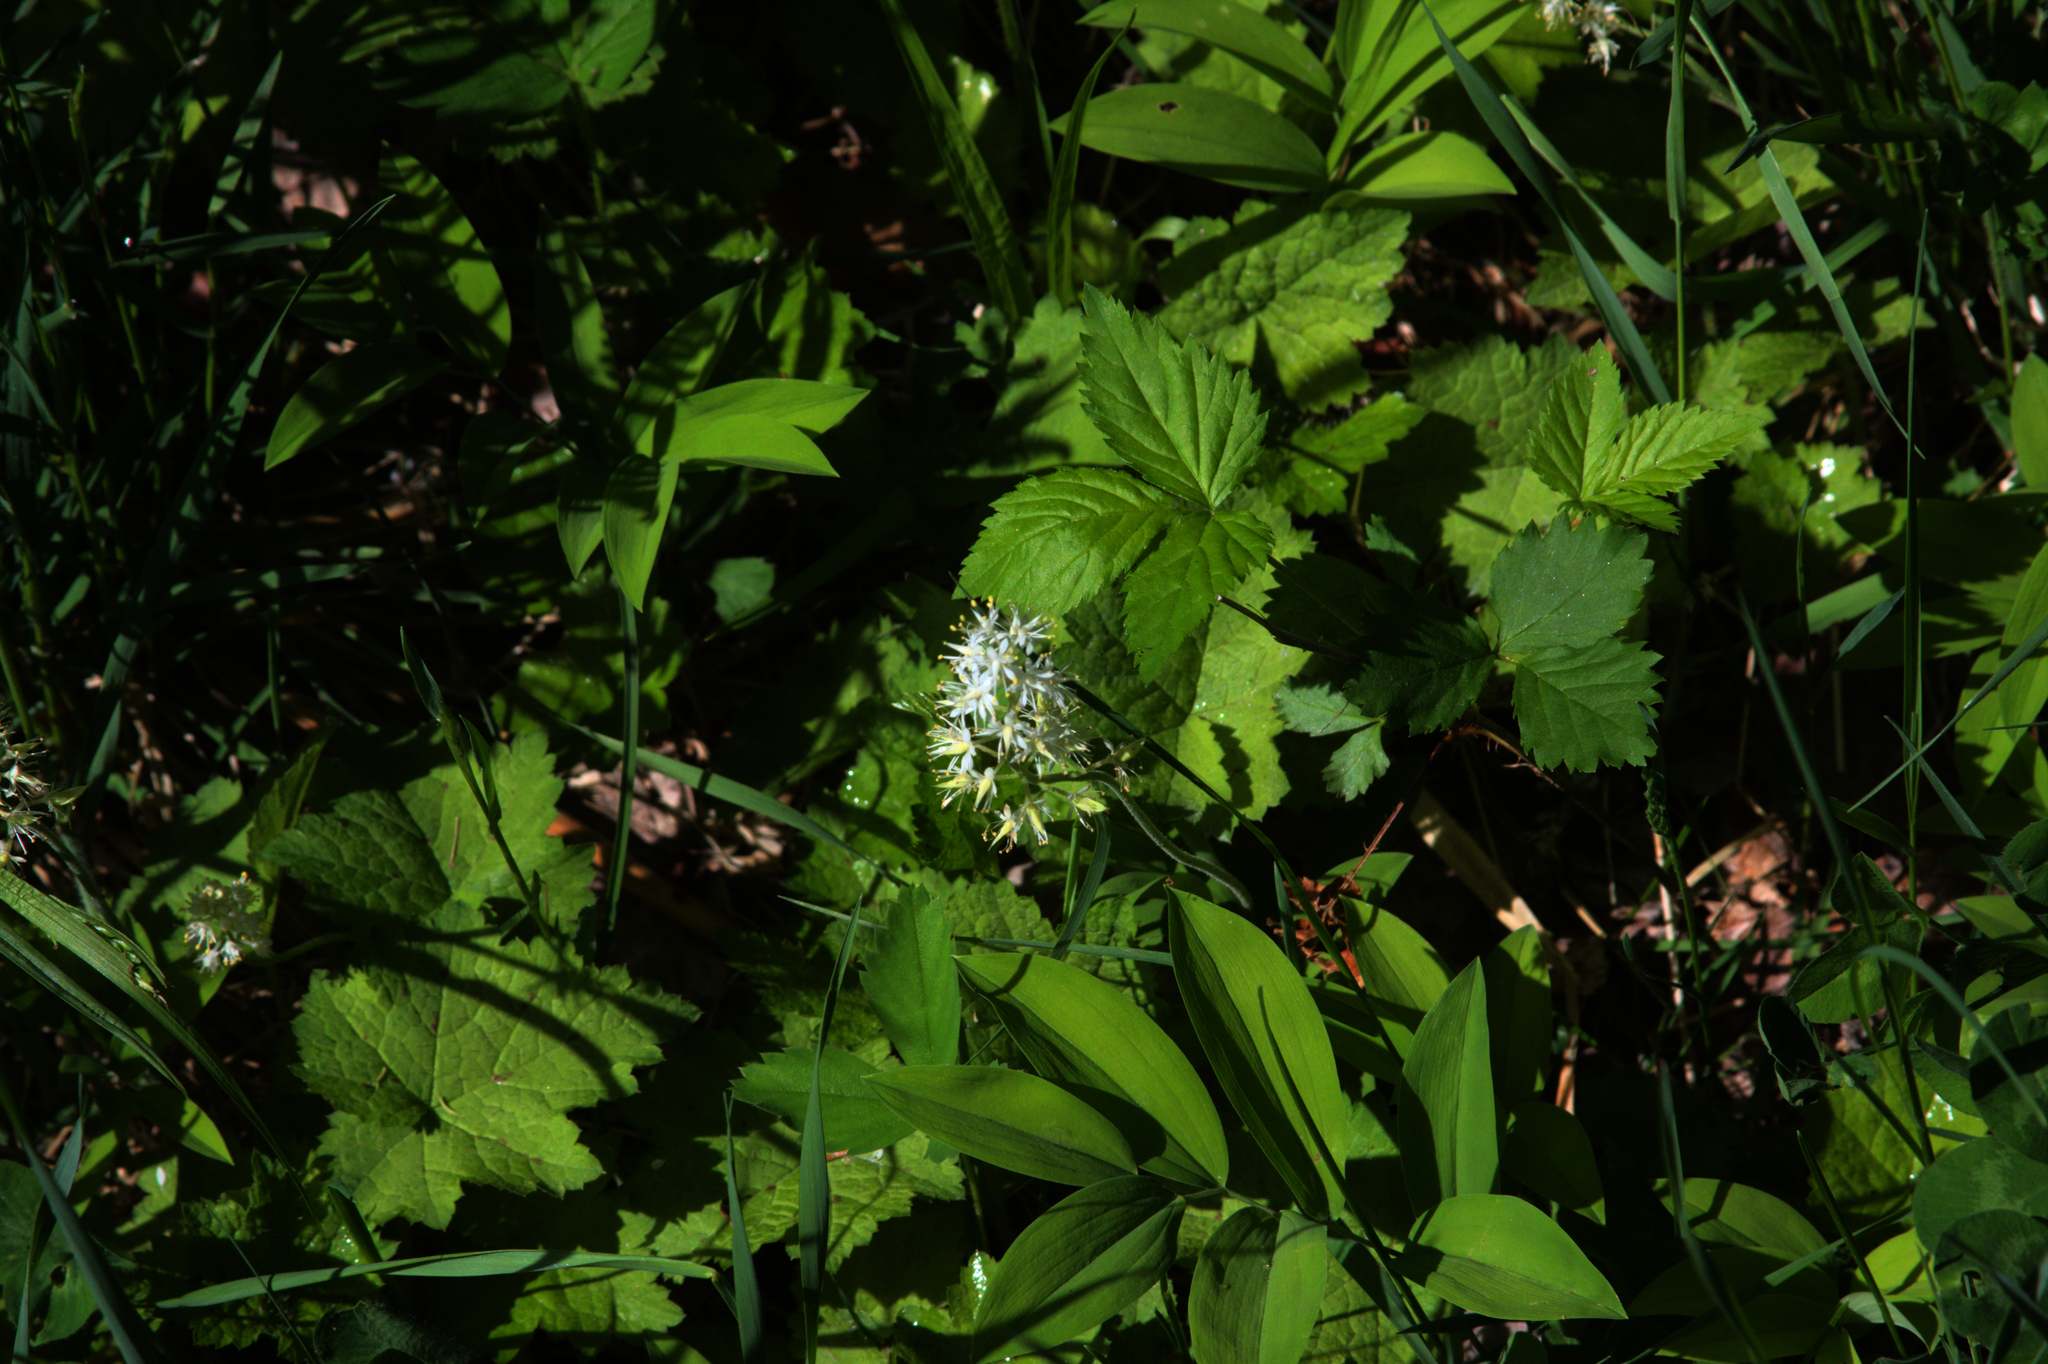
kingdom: Plantae
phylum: Tracheophyta
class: Magnoliopsida
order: Saxifragales
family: Saxifragaceae
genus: Tiarella
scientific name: Tiarella stolonifera
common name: Stoloniferous foamflower
